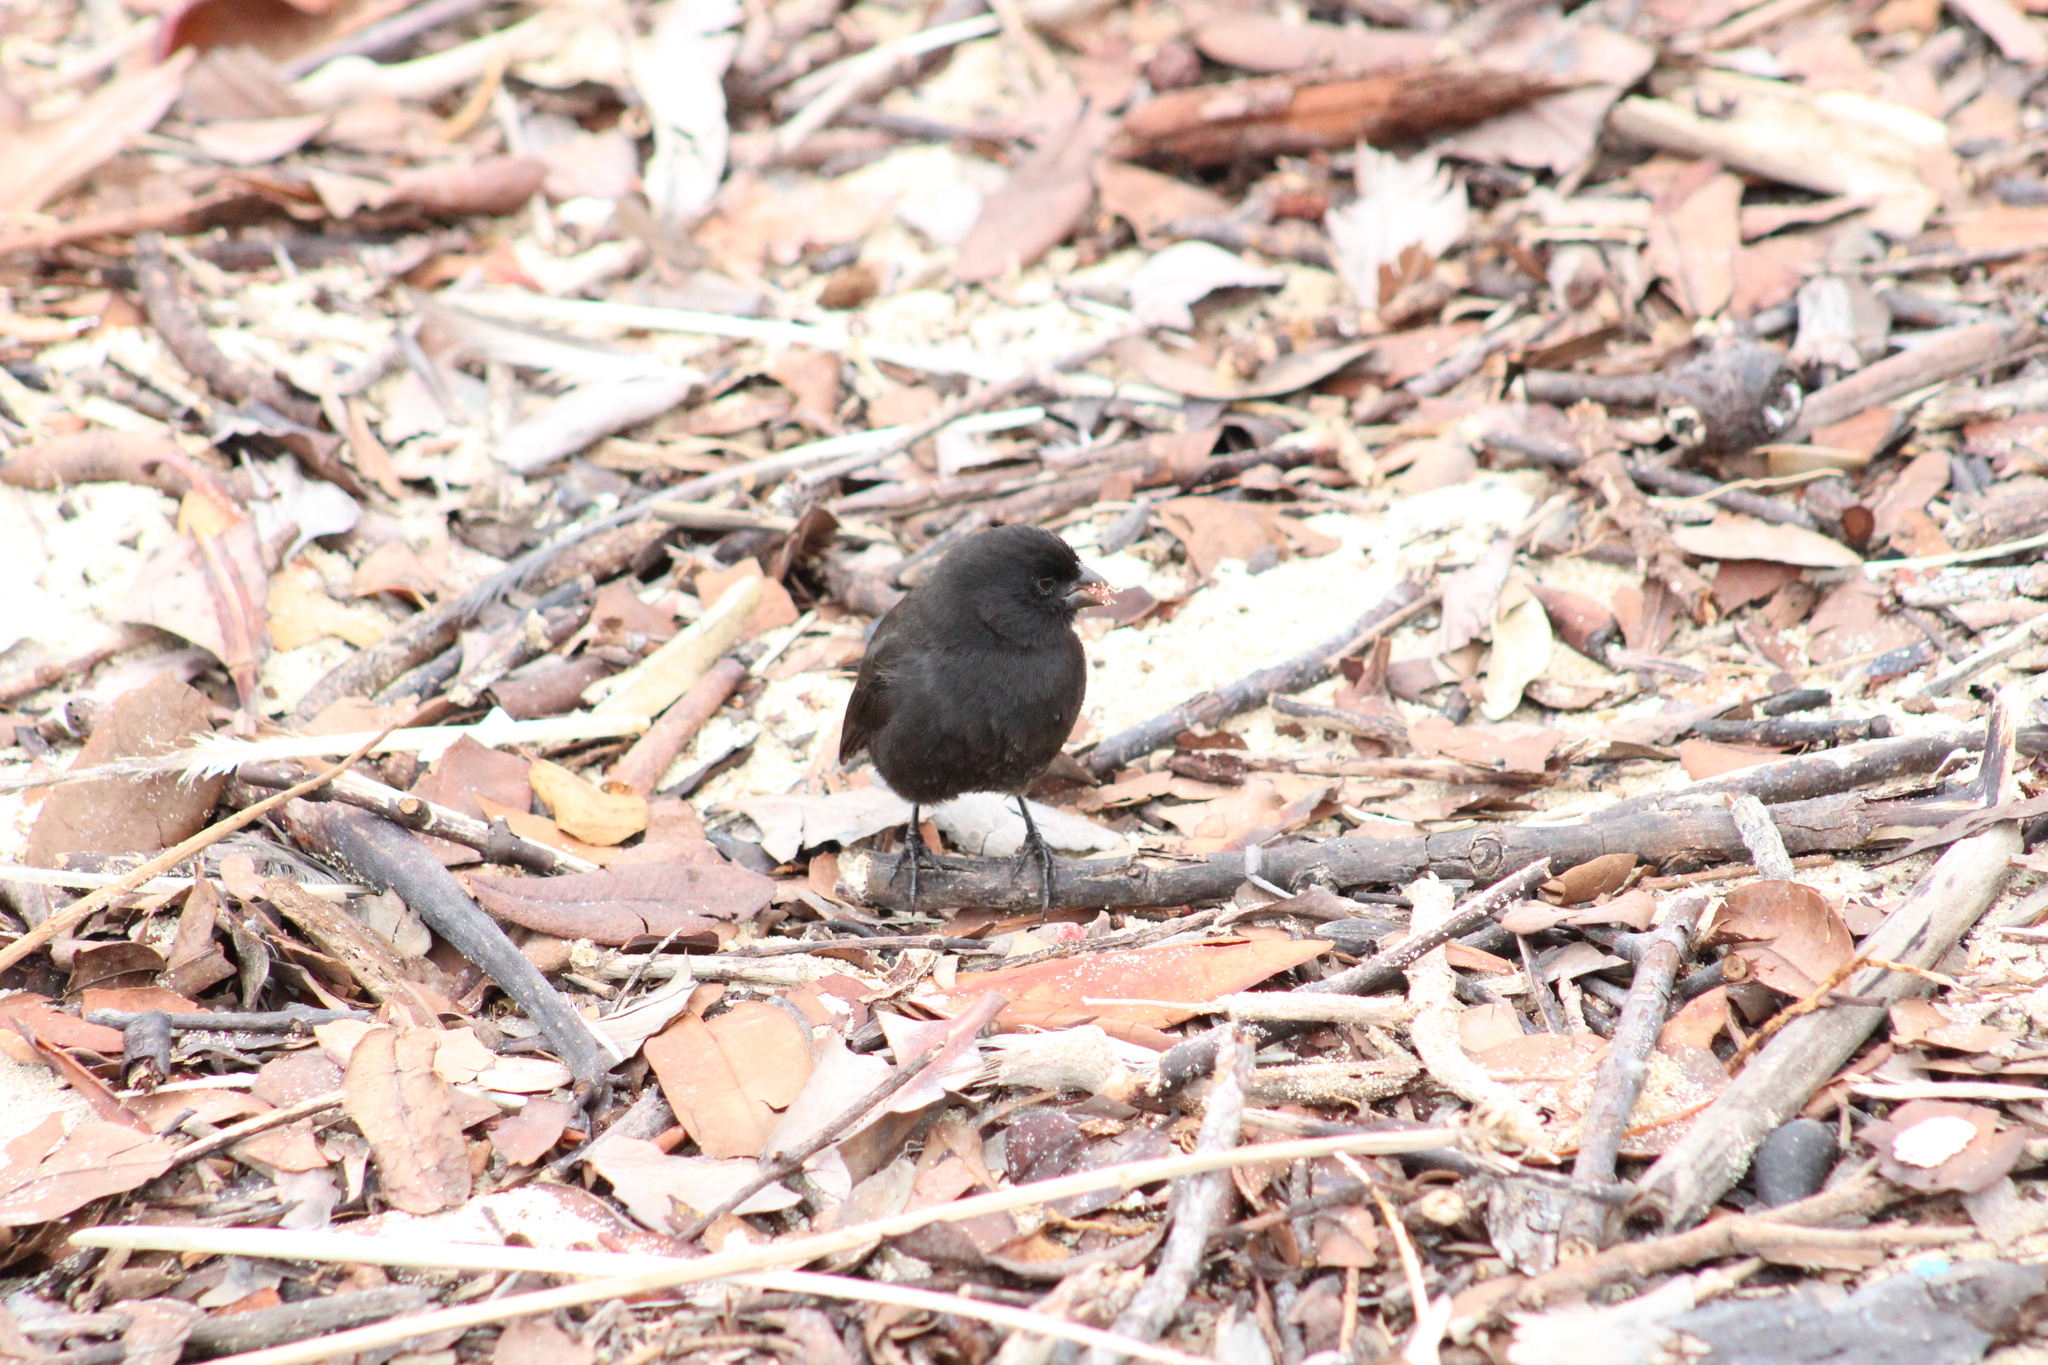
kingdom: Animalia
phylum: Chordata
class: Aves
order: Passeriformes
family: Thraupidae
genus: Geospiza
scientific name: Geospiza fuliginosa
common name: Small ground finch
